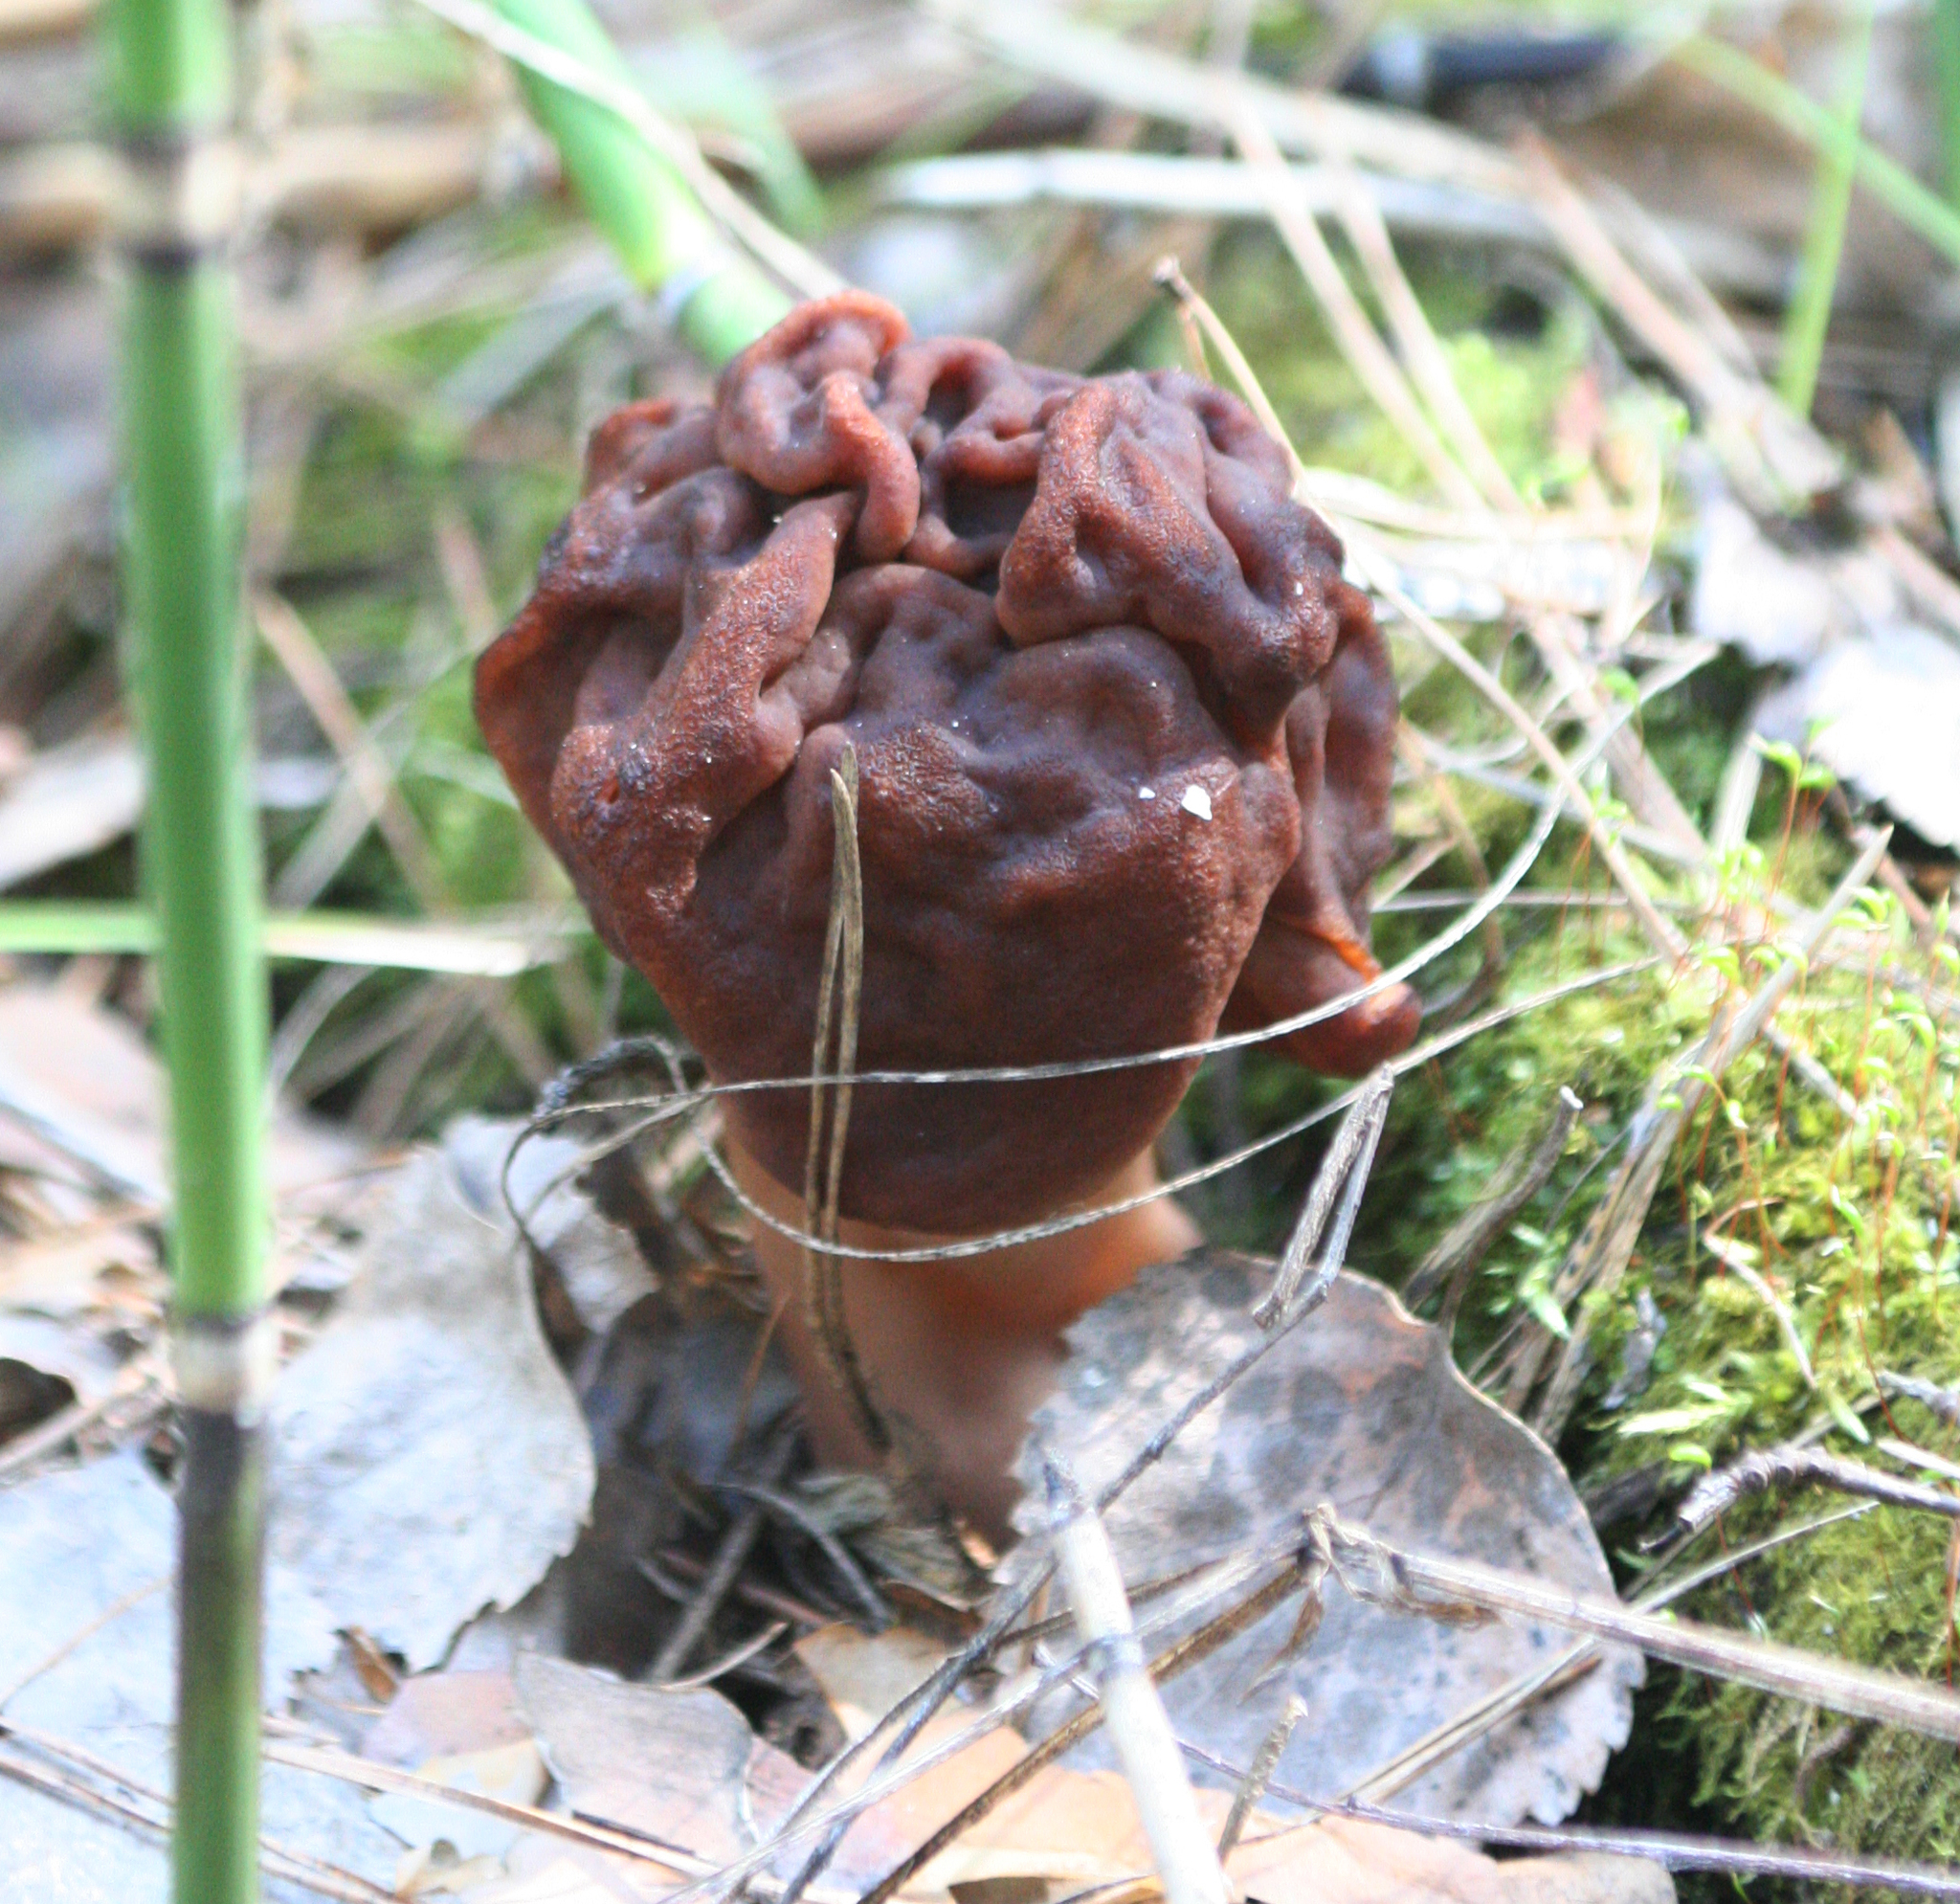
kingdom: Fungi
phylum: Ascomycota
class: Pezizomycetes
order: Pezizales
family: Discinaceae
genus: Gyromitra
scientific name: Gyromitra esculenta
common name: False morel
